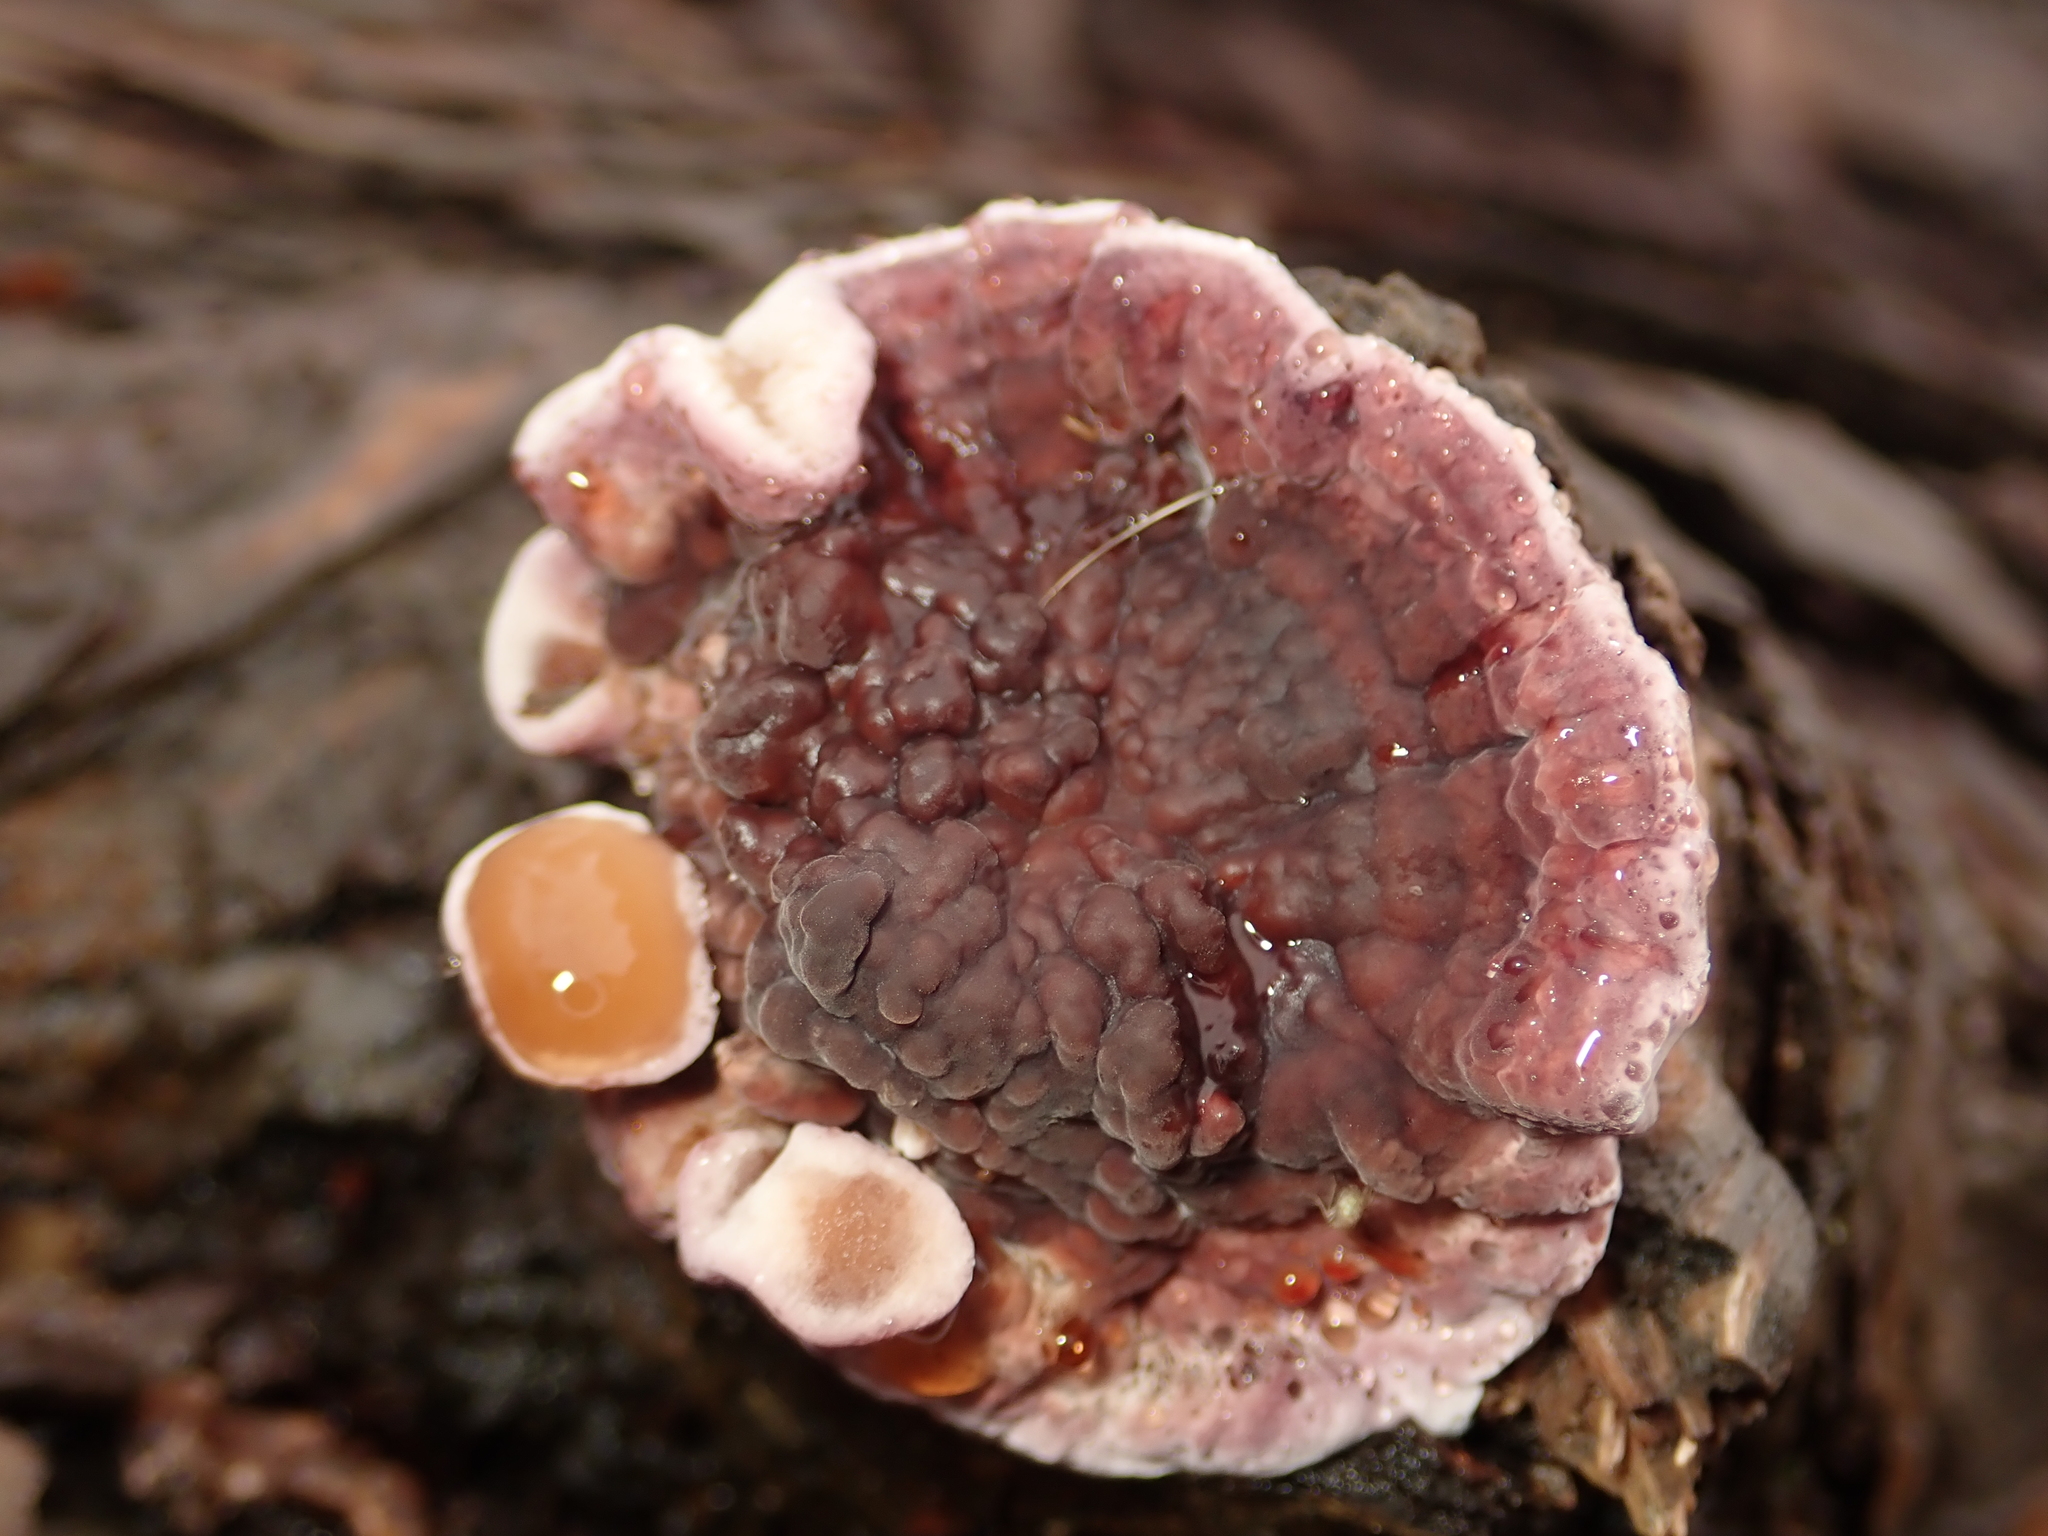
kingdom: Fungi
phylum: Basidiomycota
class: Agaricomycetes
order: Agaricales
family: Cyphellaceae
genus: Chondrostereum
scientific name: Chondrostereum purpureum
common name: Silver leaf disease
